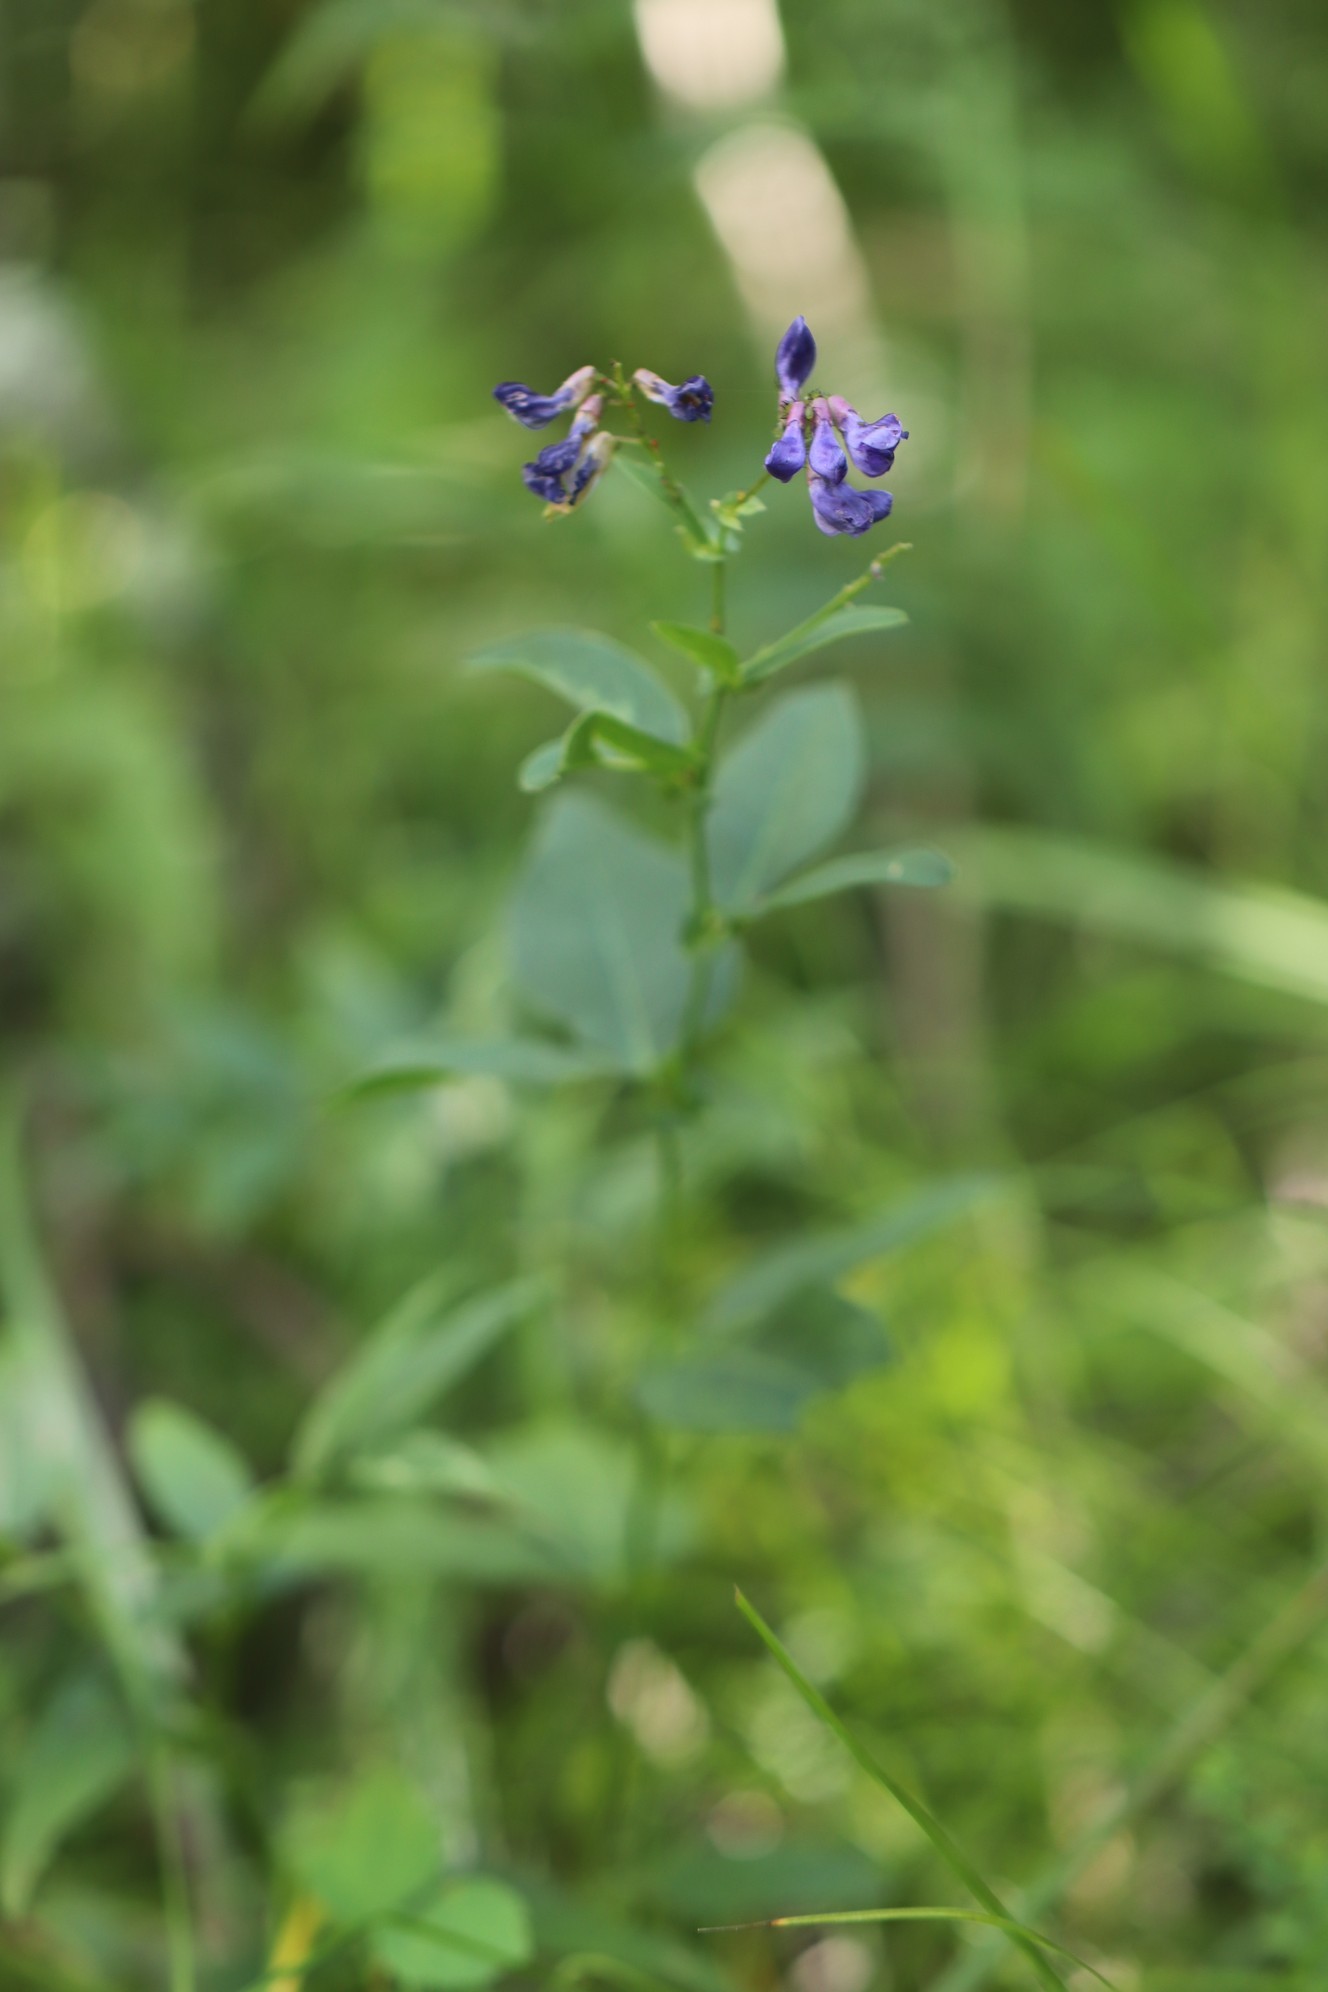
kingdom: Plantae
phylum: Tracheophyta
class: Magnoliopsida
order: Fabales
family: Fabaceae
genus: Vicia
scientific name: Vicia unijuga
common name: Two-leaf vetch
